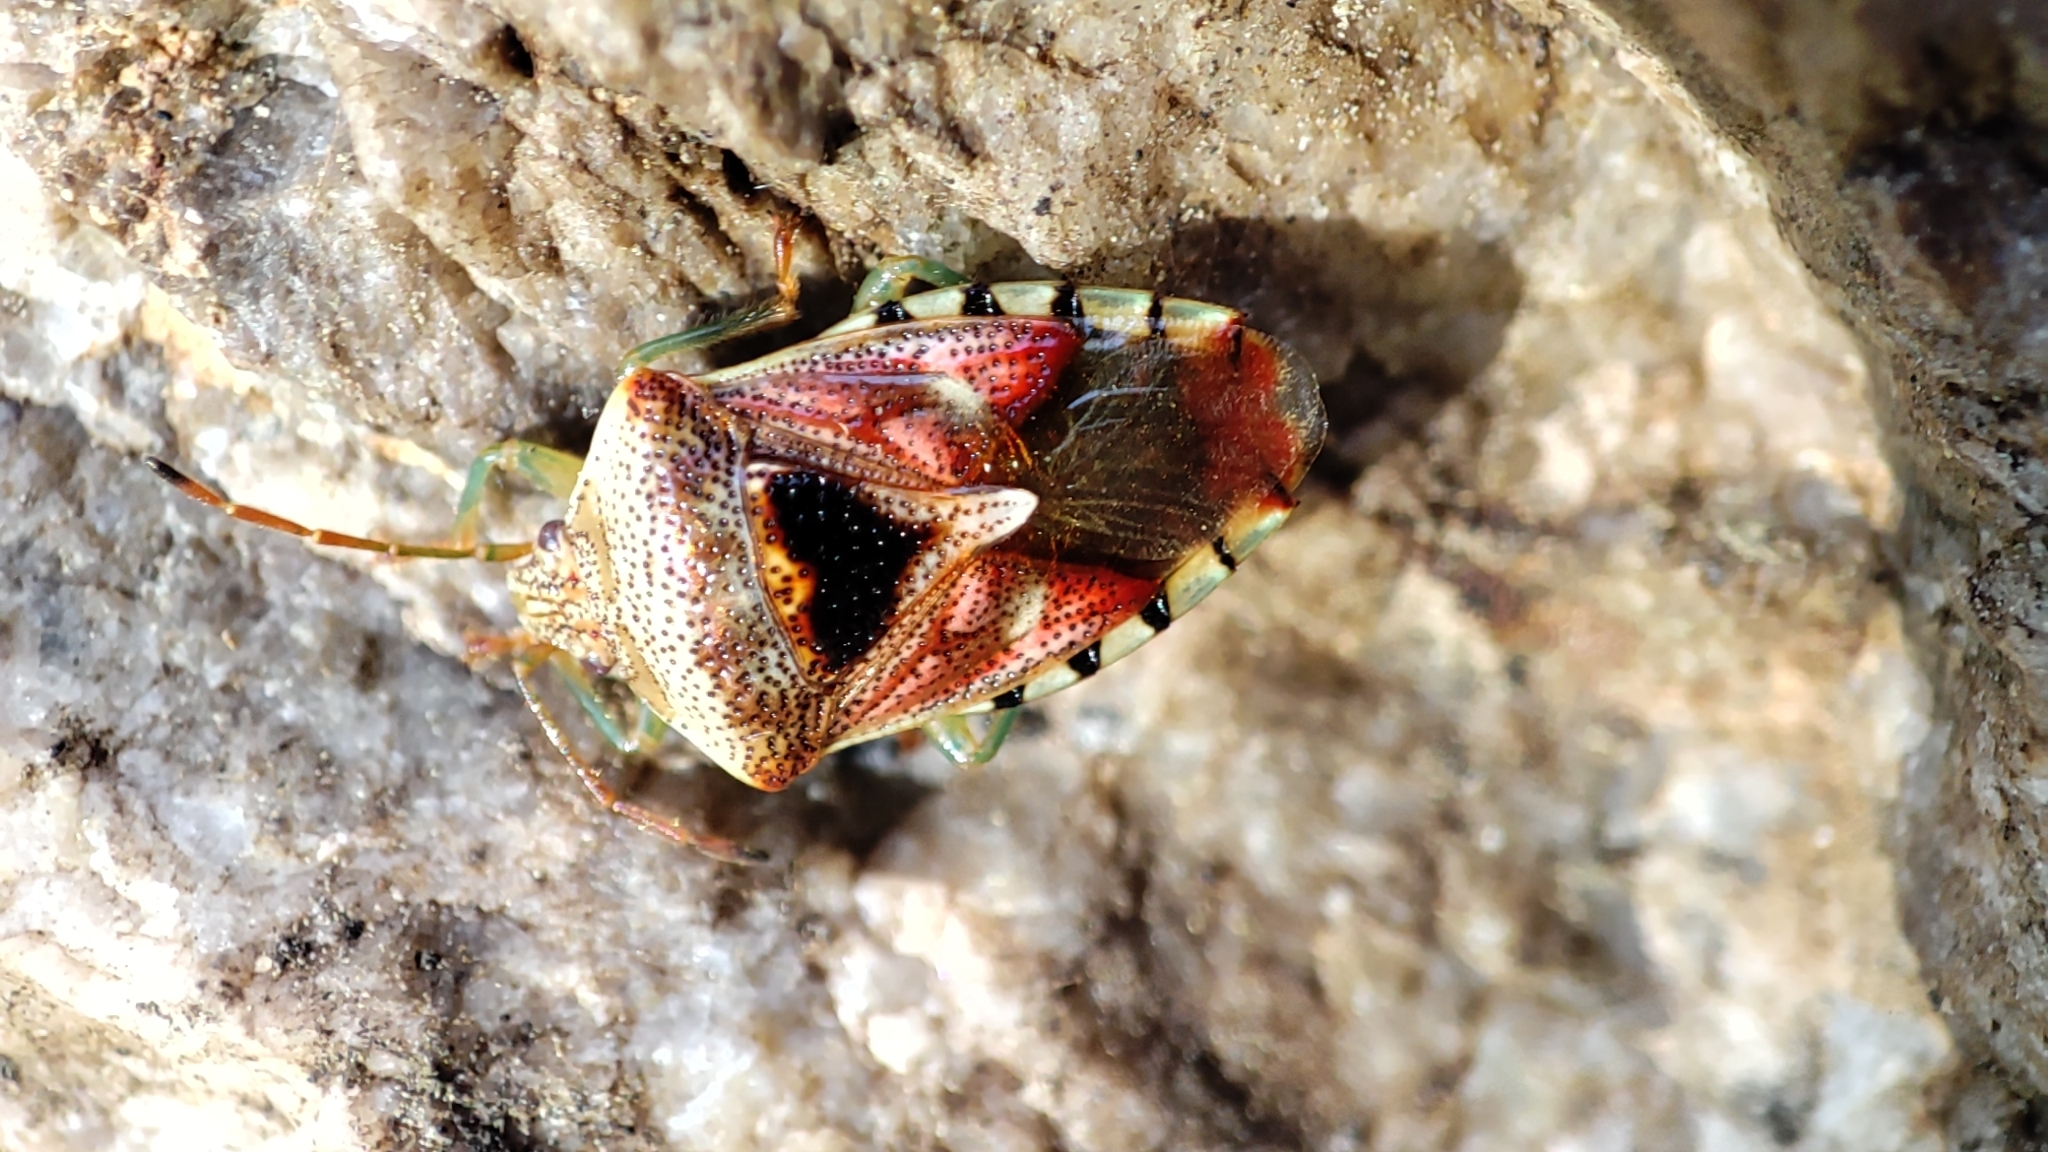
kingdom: Animalia
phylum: Arthropoda
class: Insecta
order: Hemiptera
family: Acanthosomatidae
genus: Elasmucha
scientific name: Elasmucha grisea
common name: Parent bug
